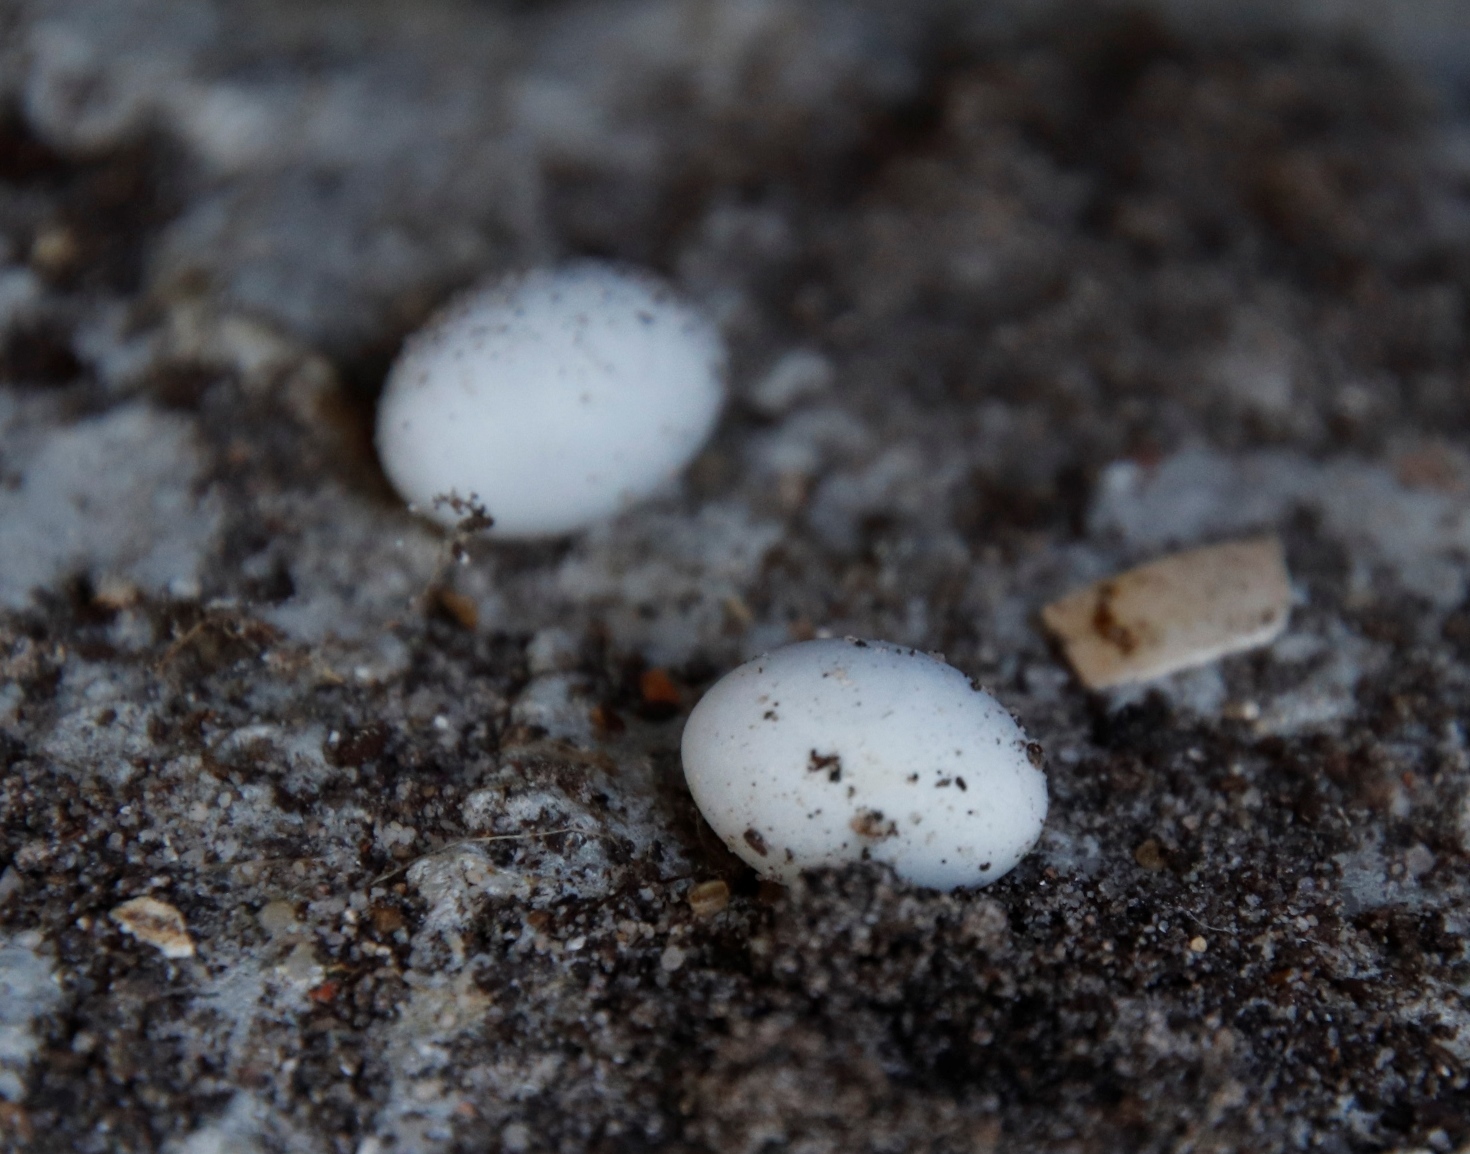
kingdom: Animalia
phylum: Chordata
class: Squamata
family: Gekkonidae
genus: Afrogecko
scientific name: Afrogecko porphyreus
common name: Marbled leaf-toed gecko
